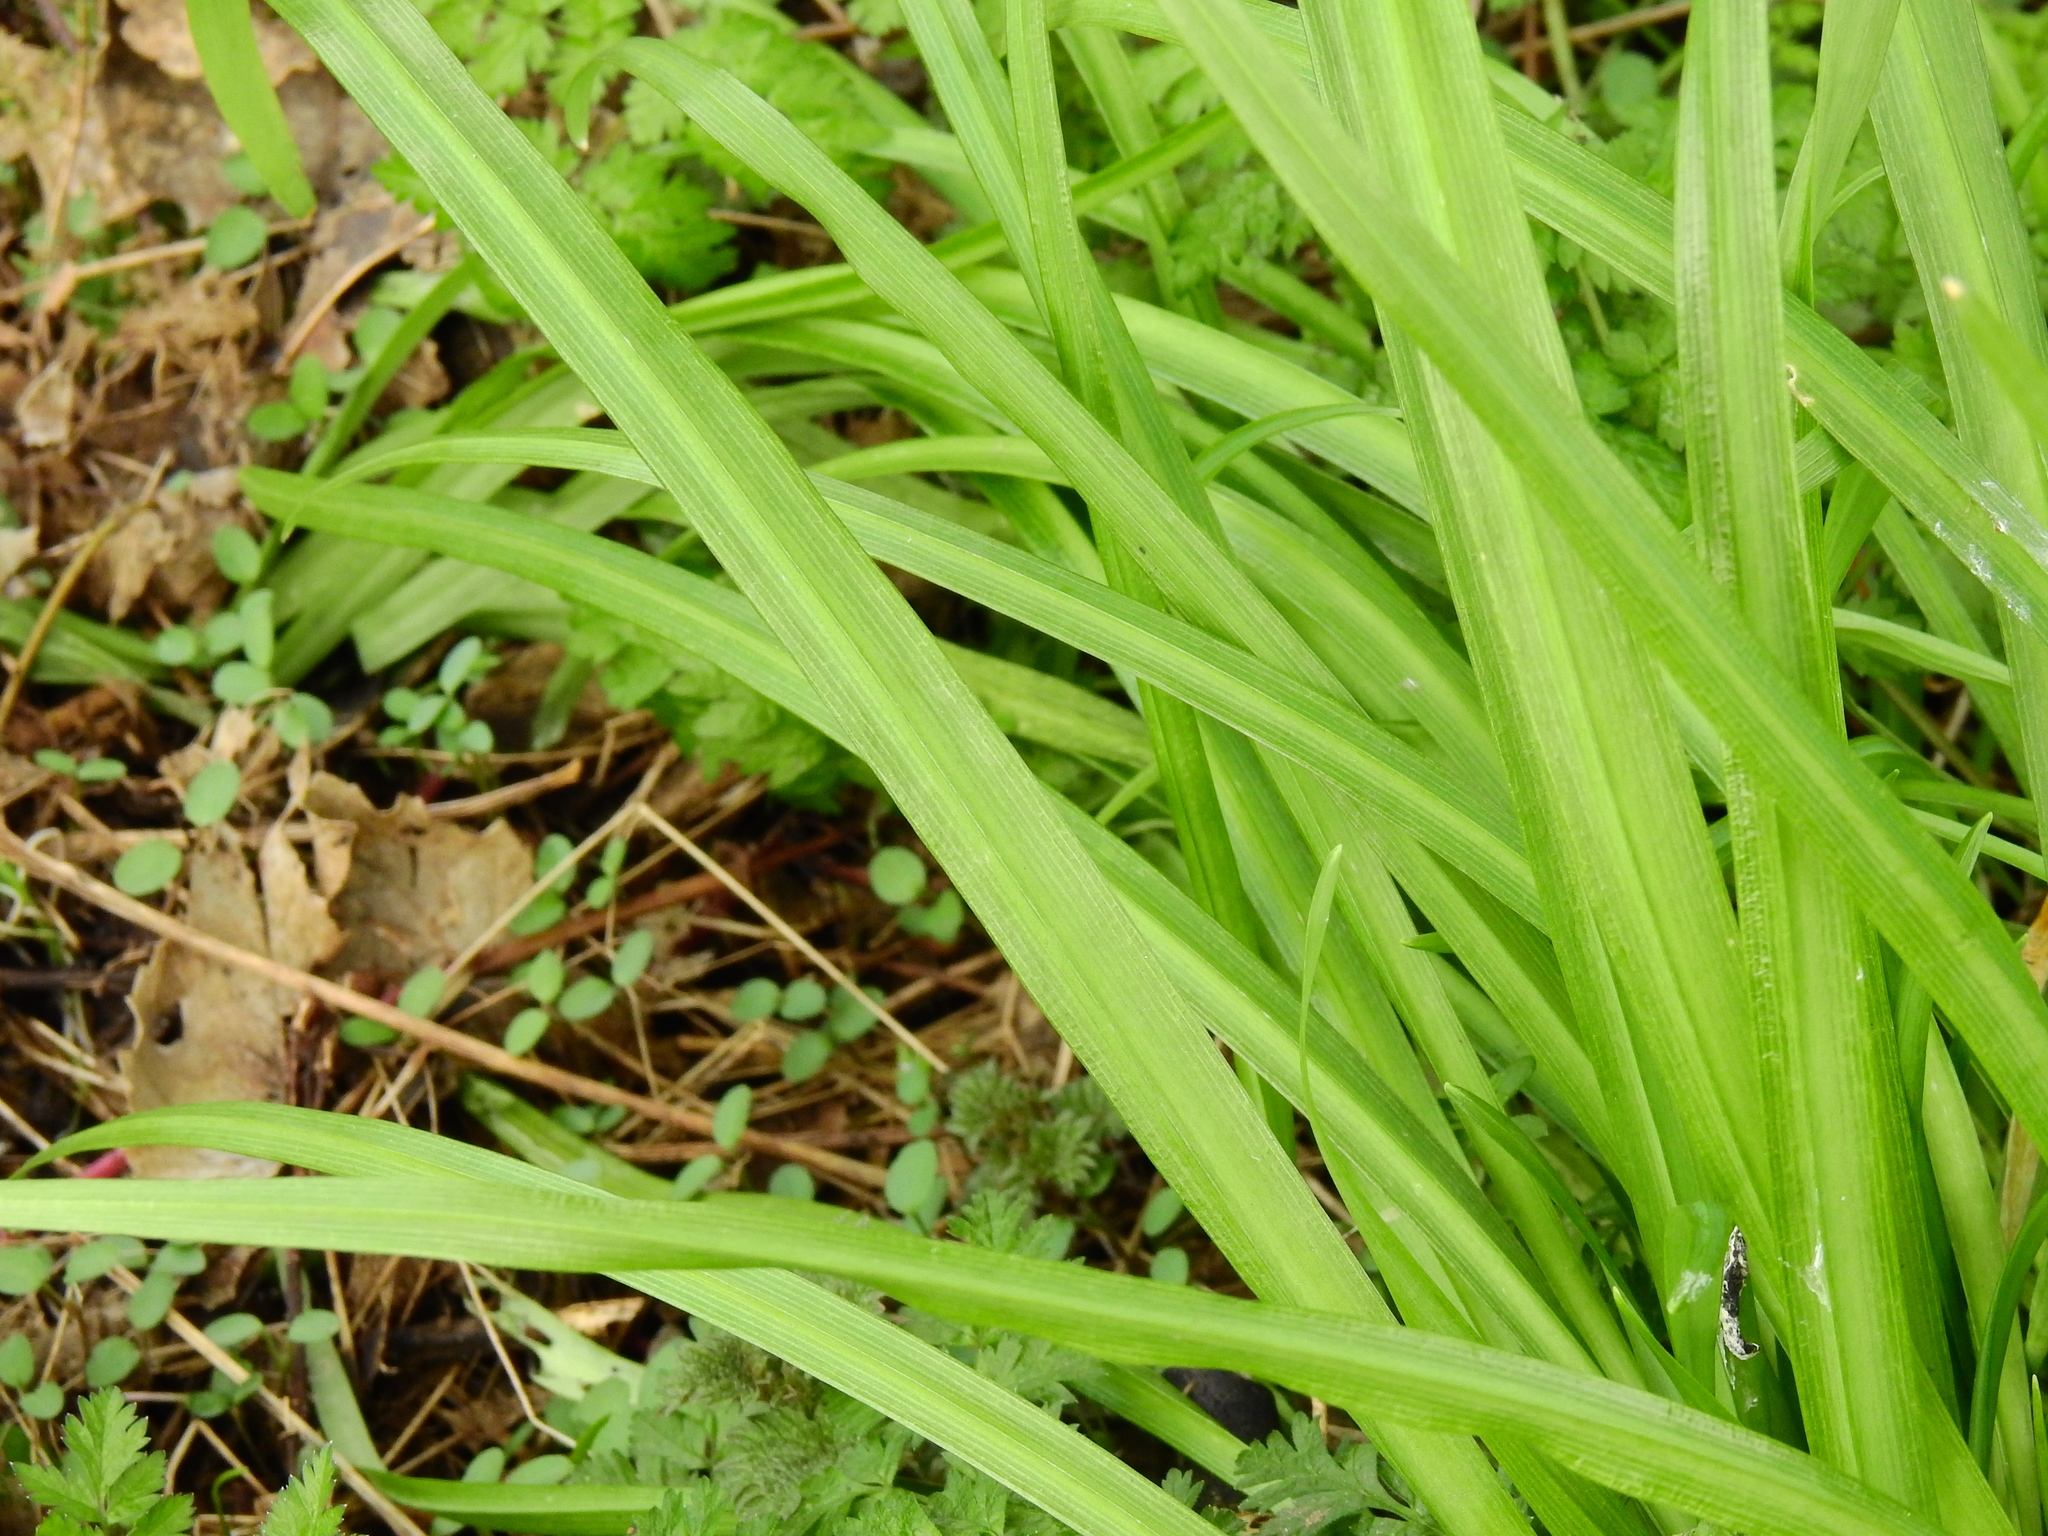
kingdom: Plantae
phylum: Tracheophyta
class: Liliopsida
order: Asparagales
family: Amaryllidaceae
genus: Allium
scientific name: Allium triquetrum
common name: Three-cornered garlic
